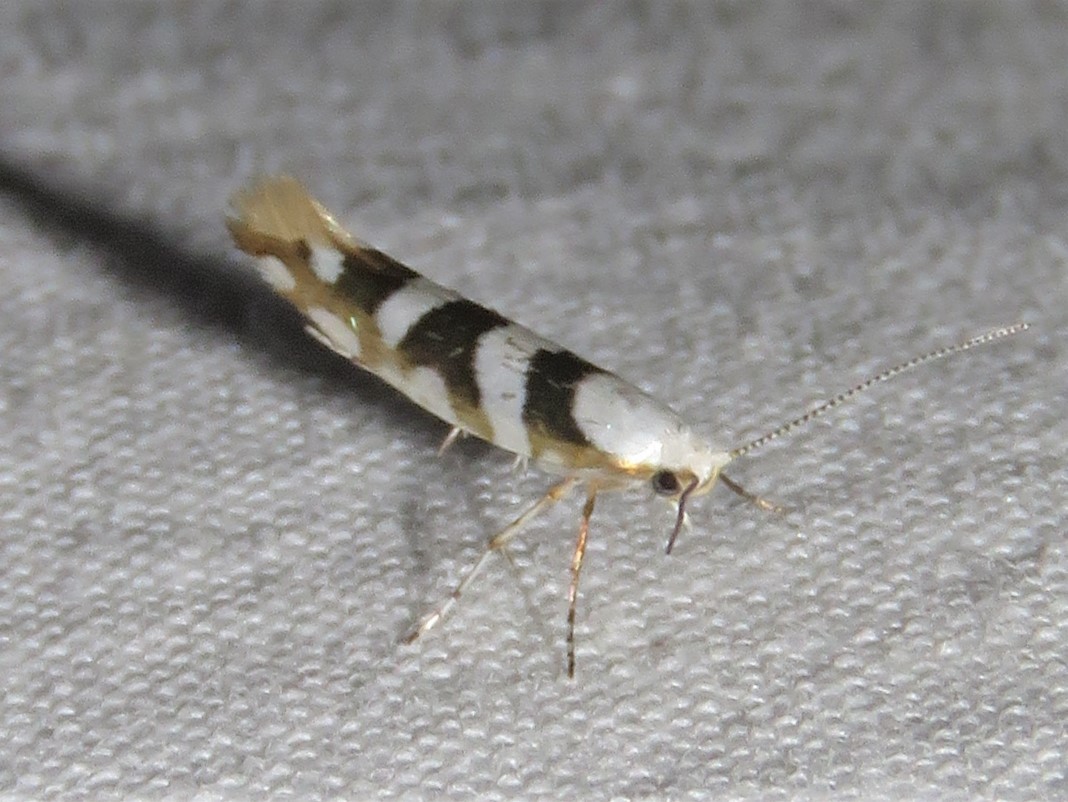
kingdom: Animalia
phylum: Arthropoda
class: Insecta
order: Lepidoptera
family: Argyresthiidae
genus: Argyresthia
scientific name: Argyresthia calliphanes
